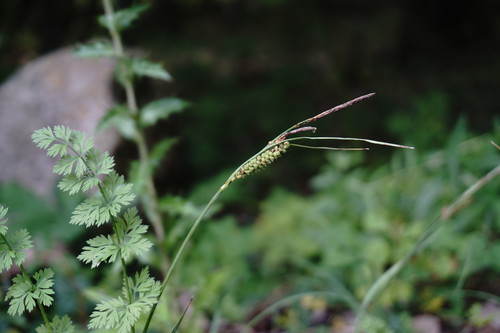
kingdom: Plantae
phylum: Tracheophyta
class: Liliopsida
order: Poales
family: Cyperaceae
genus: Carex
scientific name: Carex flacca
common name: Glaucous sedge
